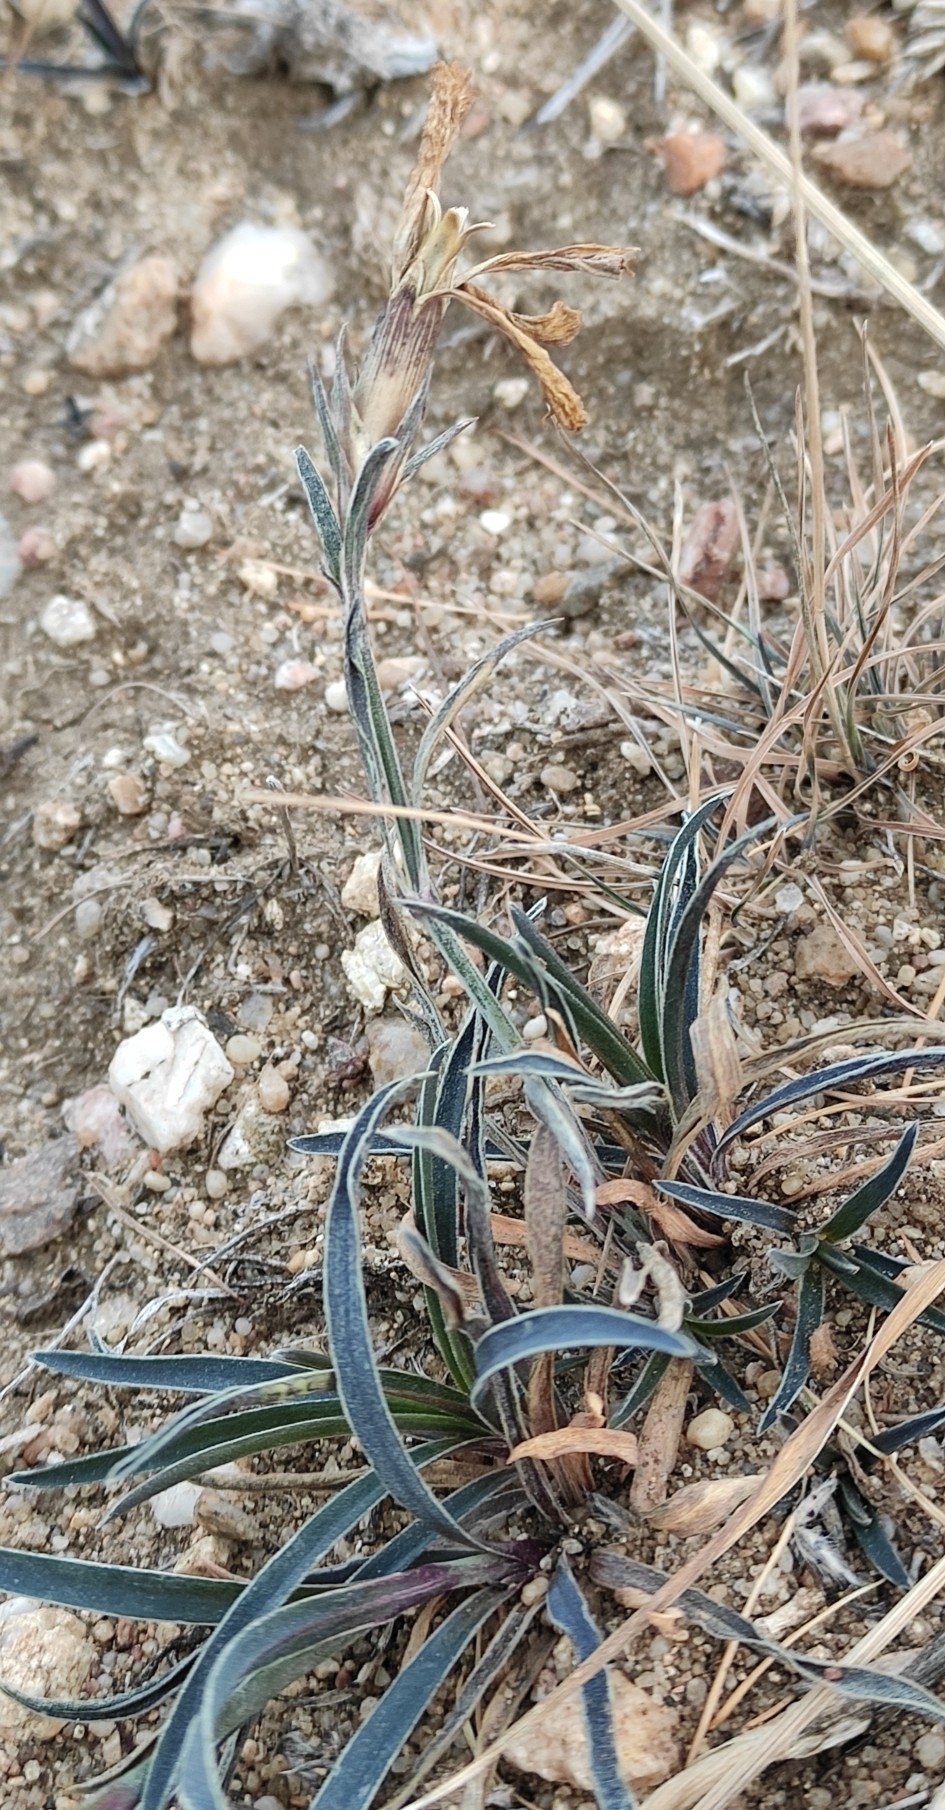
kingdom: Plantae
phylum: Tracheophyta
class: Magnoliopsida
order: Caryophyllales
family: Caryophyllaceae
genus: Dianthus
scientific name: Dianthus chinensis
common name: Rainbow pink
